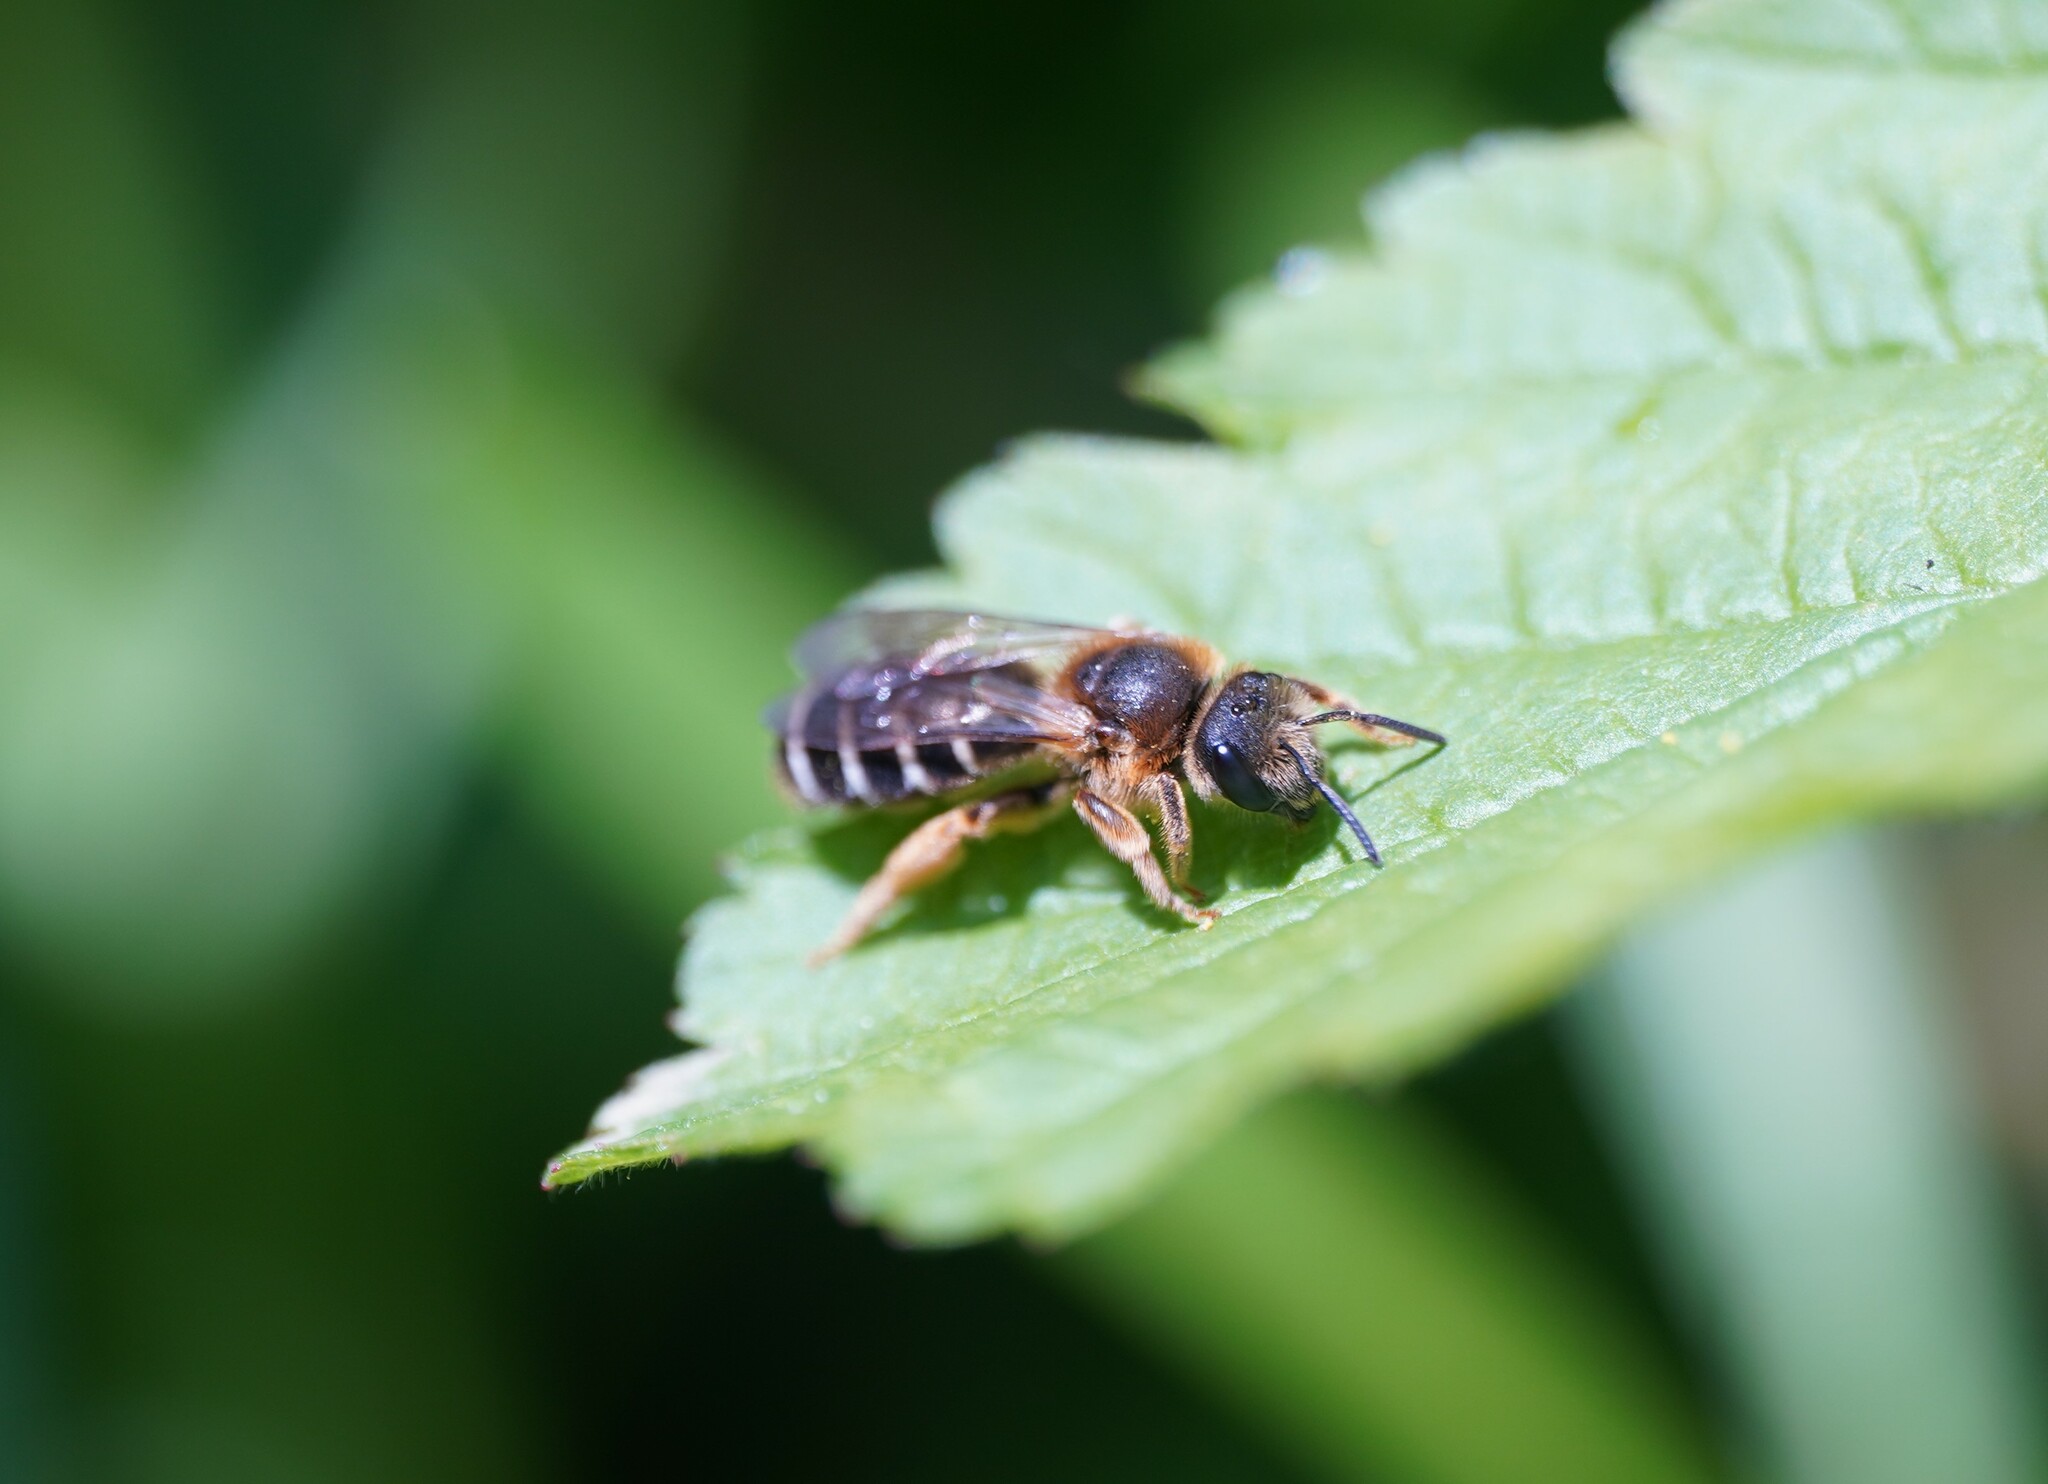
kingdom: Animalia
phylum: Arthropoda
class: Insecta
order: Hymenoptera
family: Halictidae
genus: Halictus
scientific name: Halictus rubicundus
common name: Orange-legged furrow bee
